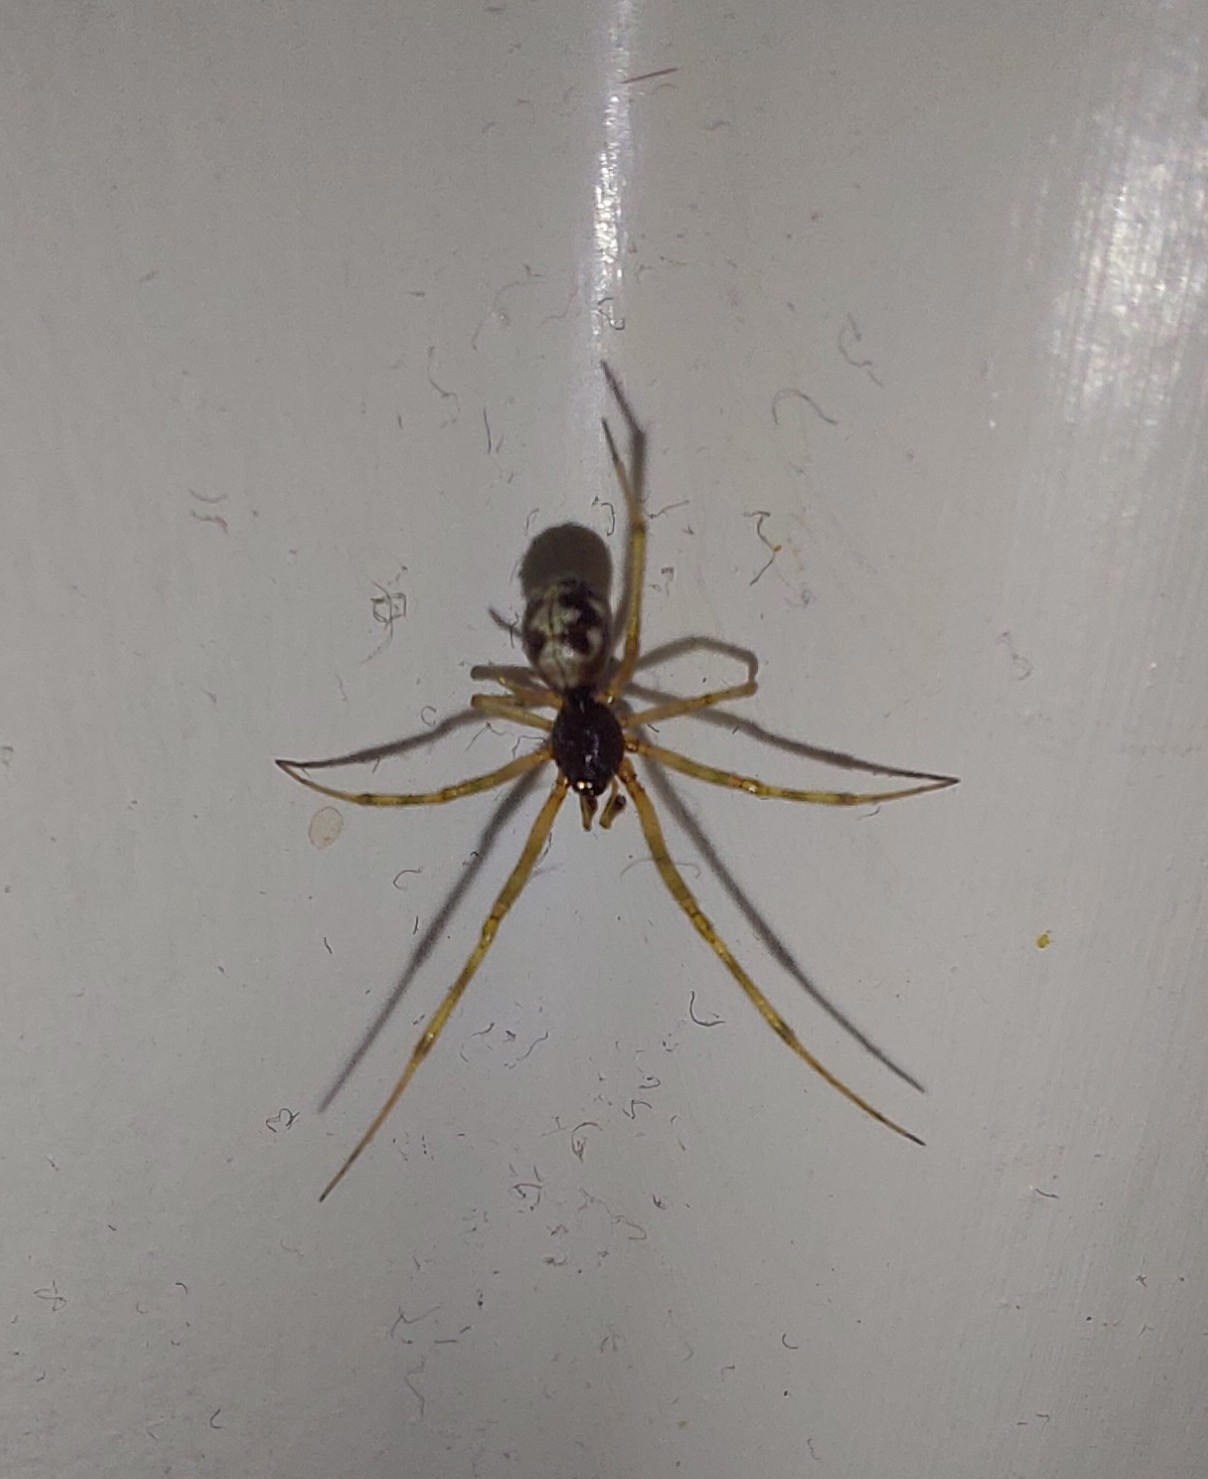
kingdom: Animalia
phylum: Arthropoda
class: Arachnida
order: Araneae
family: Theridiidae
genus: Steatoda
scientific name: Steatoda triangulosa
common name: Triangulate bud spider
